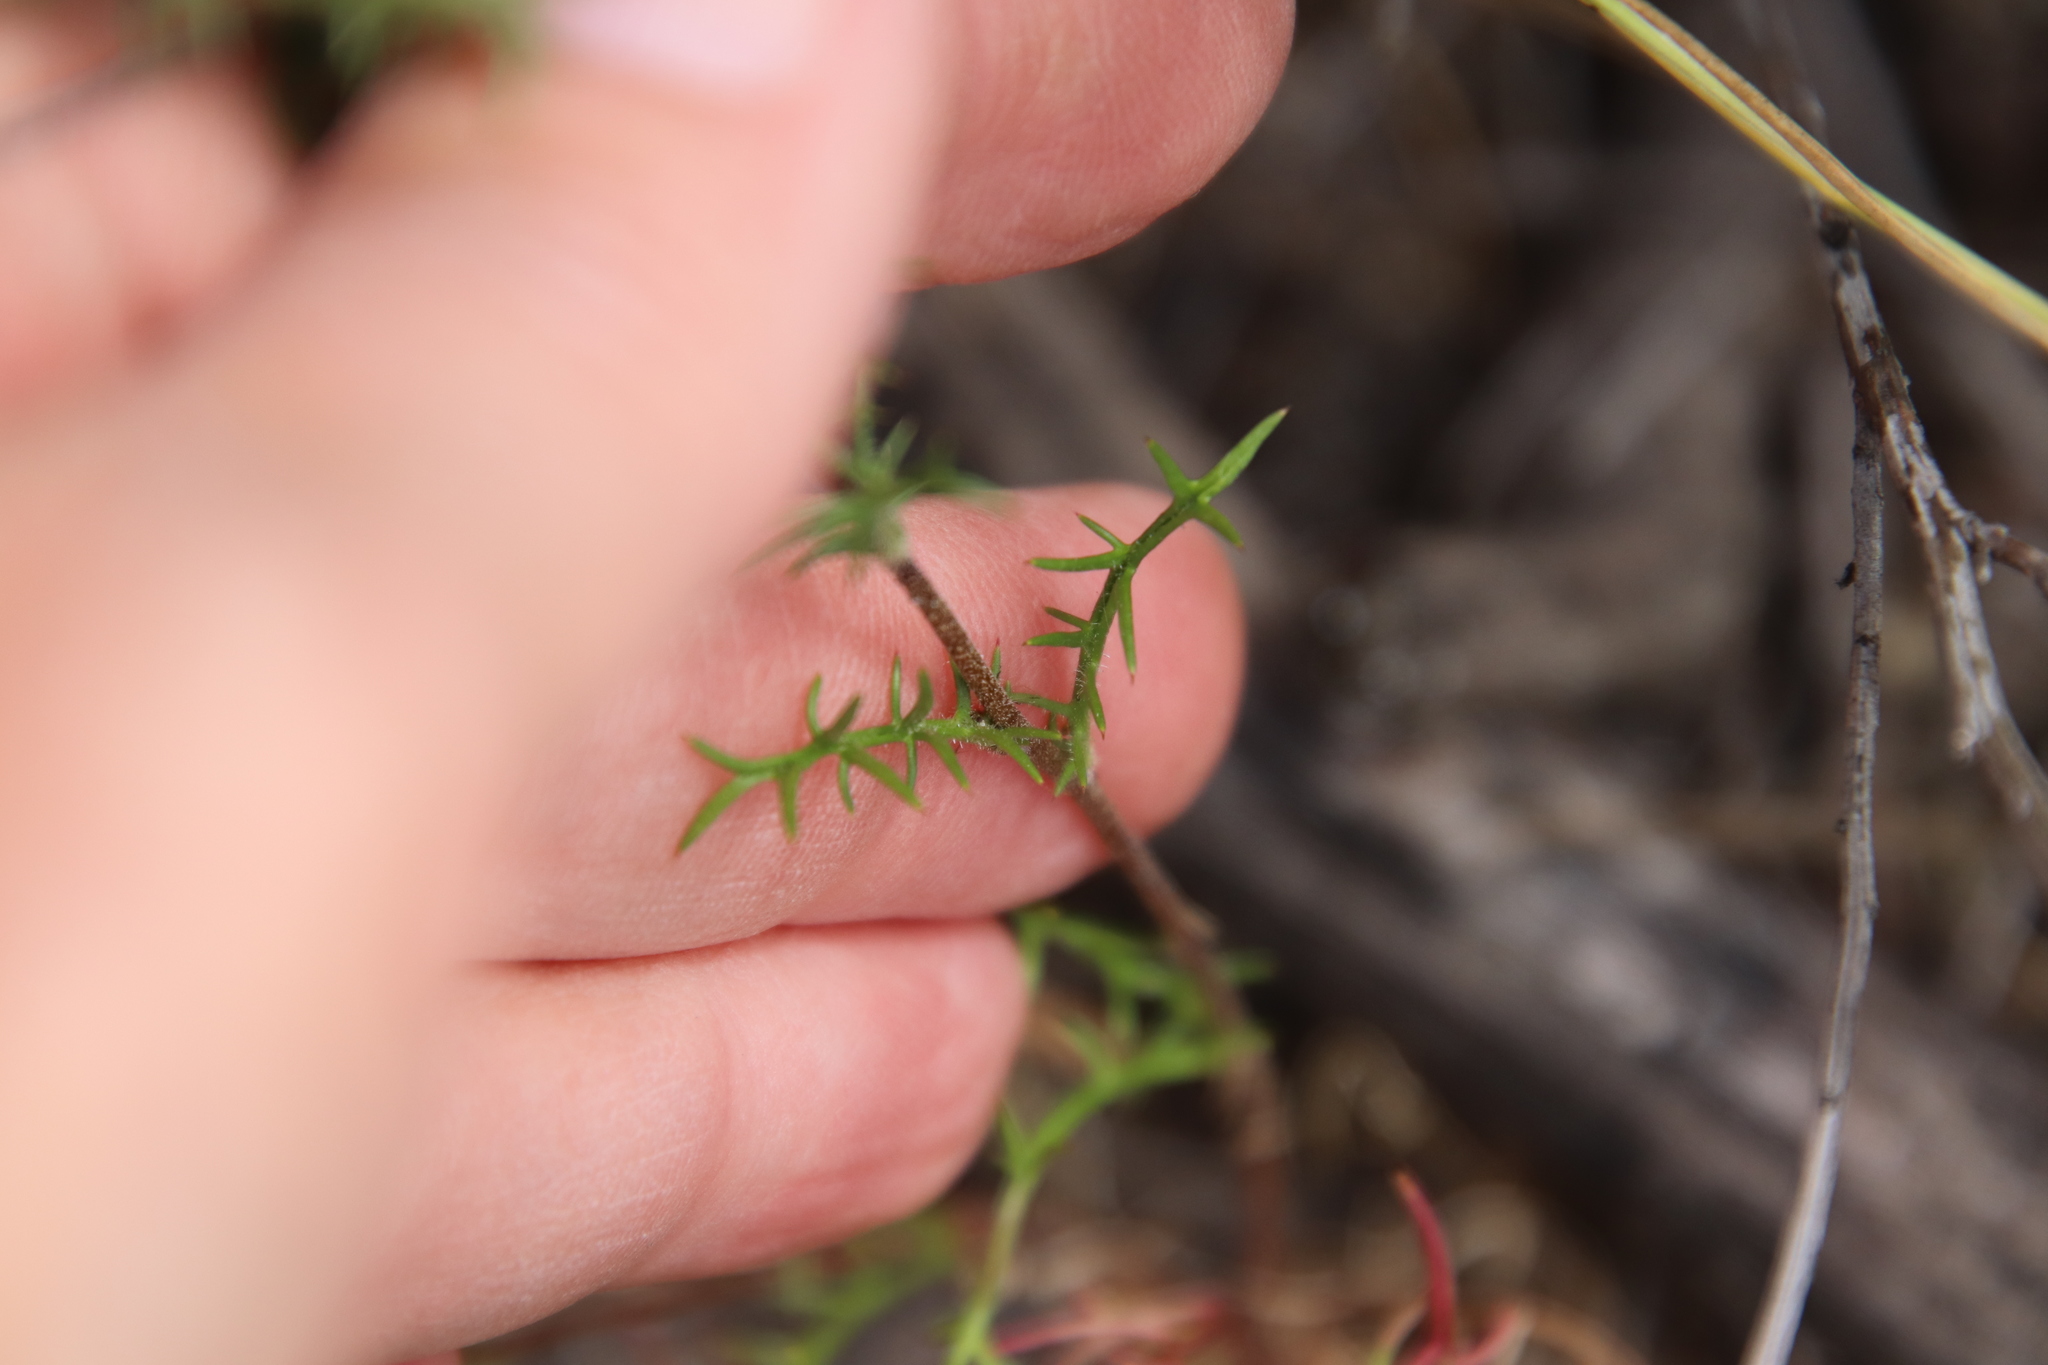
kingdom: Plantae
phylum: Tracheophyta
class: Magnoliopsida
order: Ericales
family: Polemoniaceae
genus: Navarretia
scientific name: Navarretia hamata
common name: Hooked navarretia
